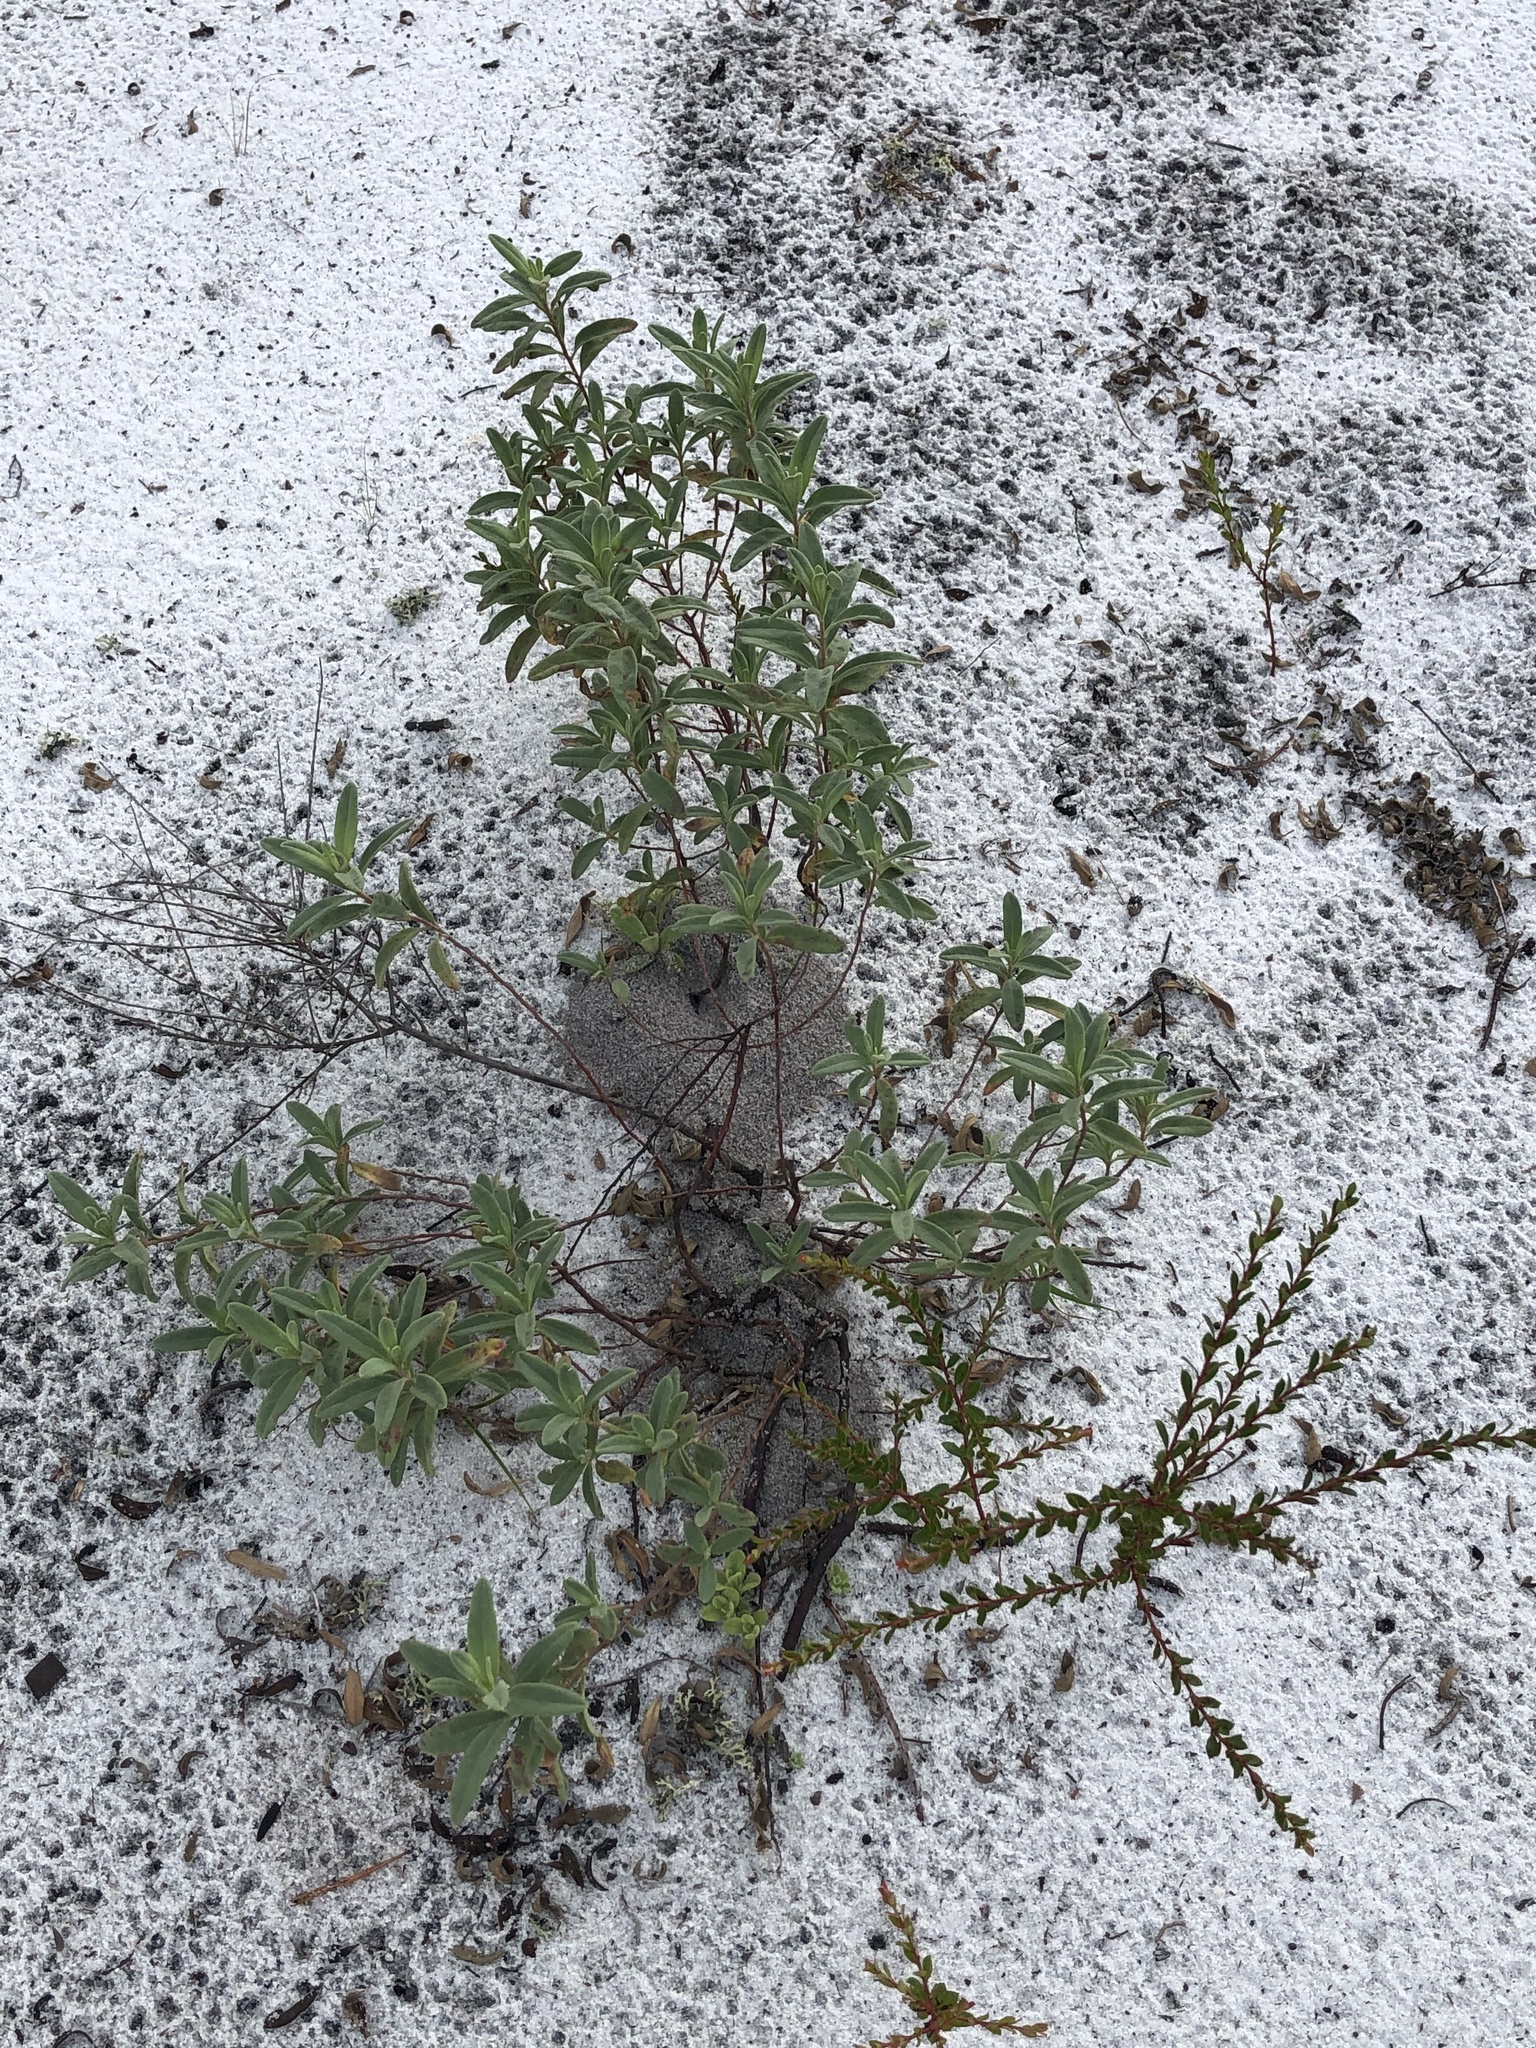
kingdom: Plantae
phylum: Tracheophyta
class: Magnoliopsida
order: Malvales
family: Cistaceae
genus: Crocanthemum
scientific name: Crocanthemum nashii
